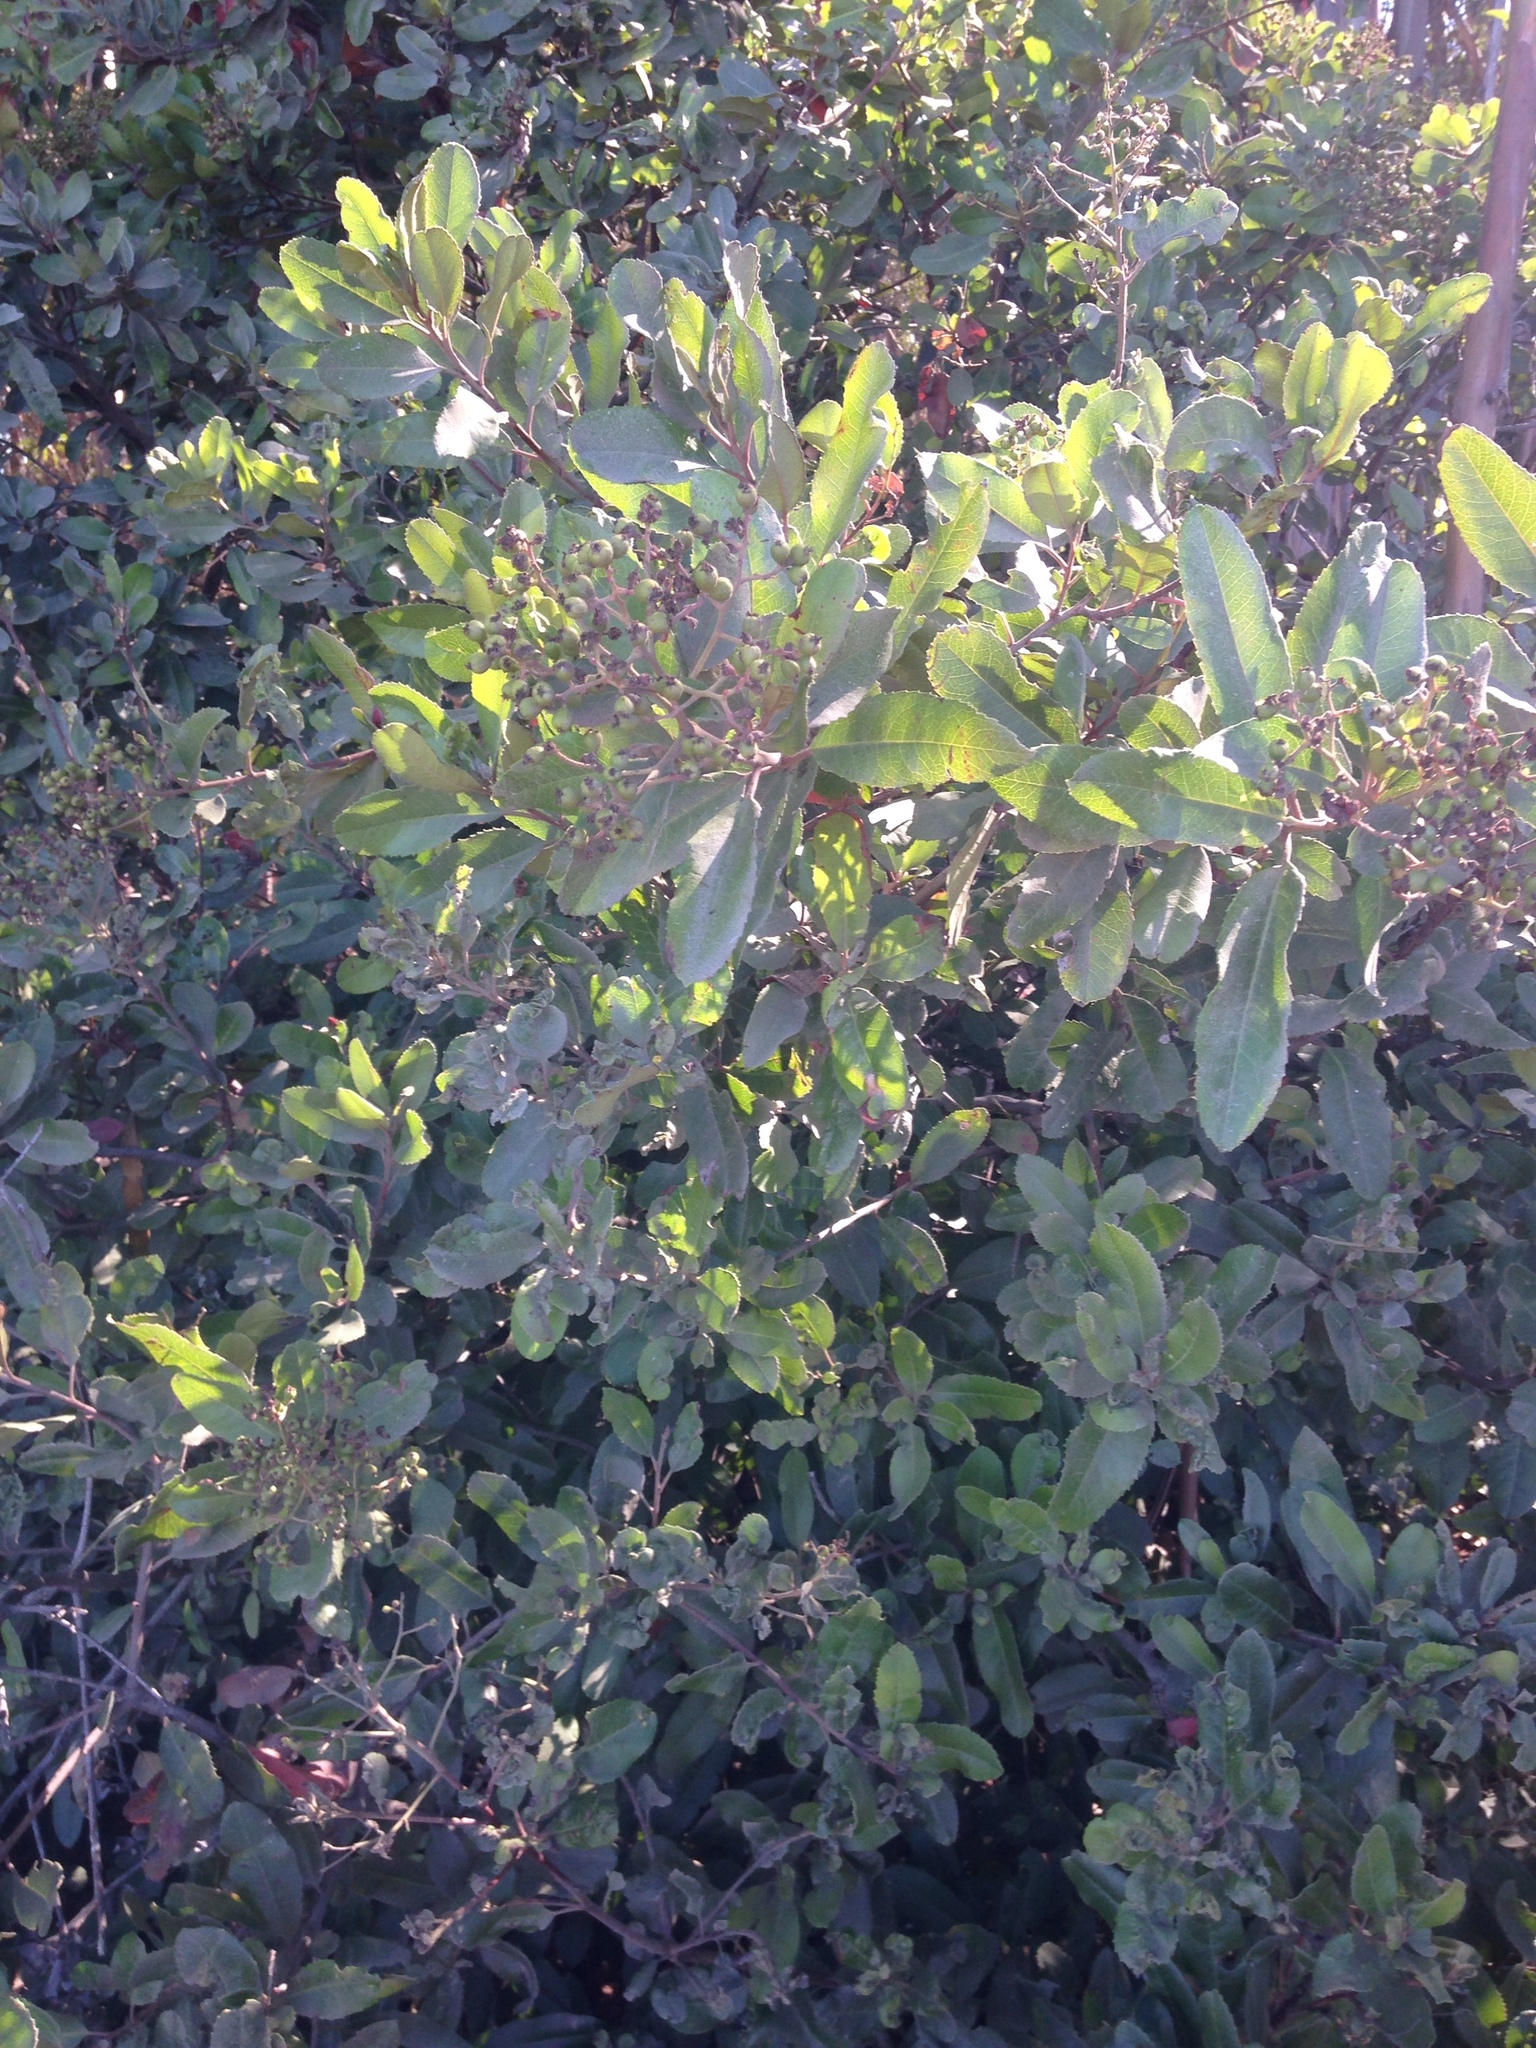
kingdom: Plantae
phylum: Tracheophyta
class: Magnoliopsida
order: Rosales
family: Rosaceae
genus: Heteromeles
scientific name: Heteromeles arbutifolia
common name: California-holly
